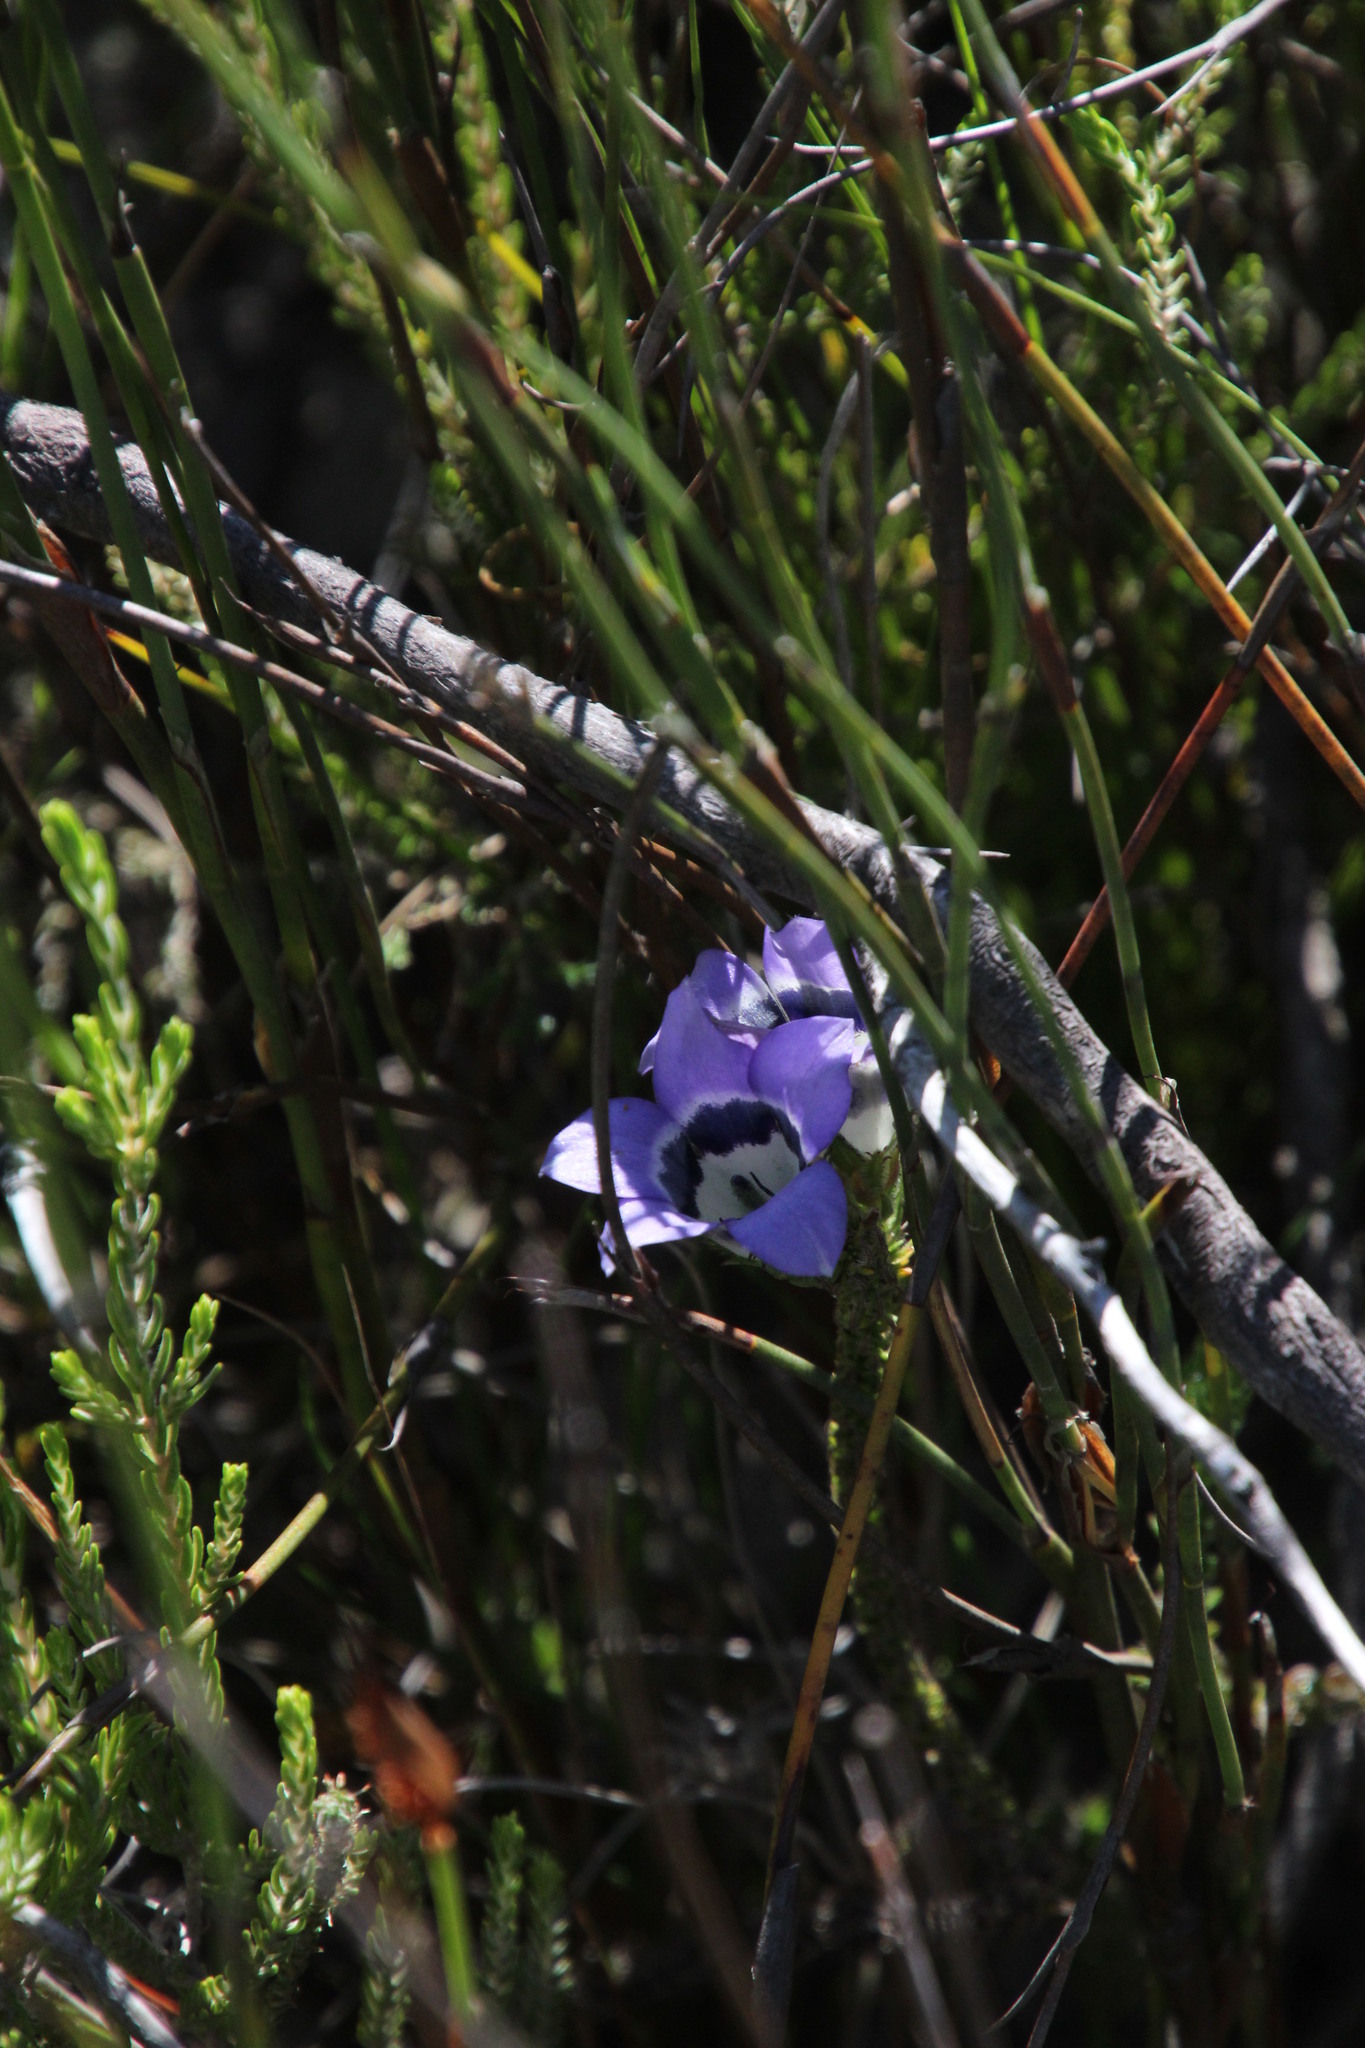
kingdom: Plantae
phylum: Tracheophyta
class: Magnoliopsida
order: Asterales
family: Campanulaceae
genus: Roella
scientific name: Roella ciliata
